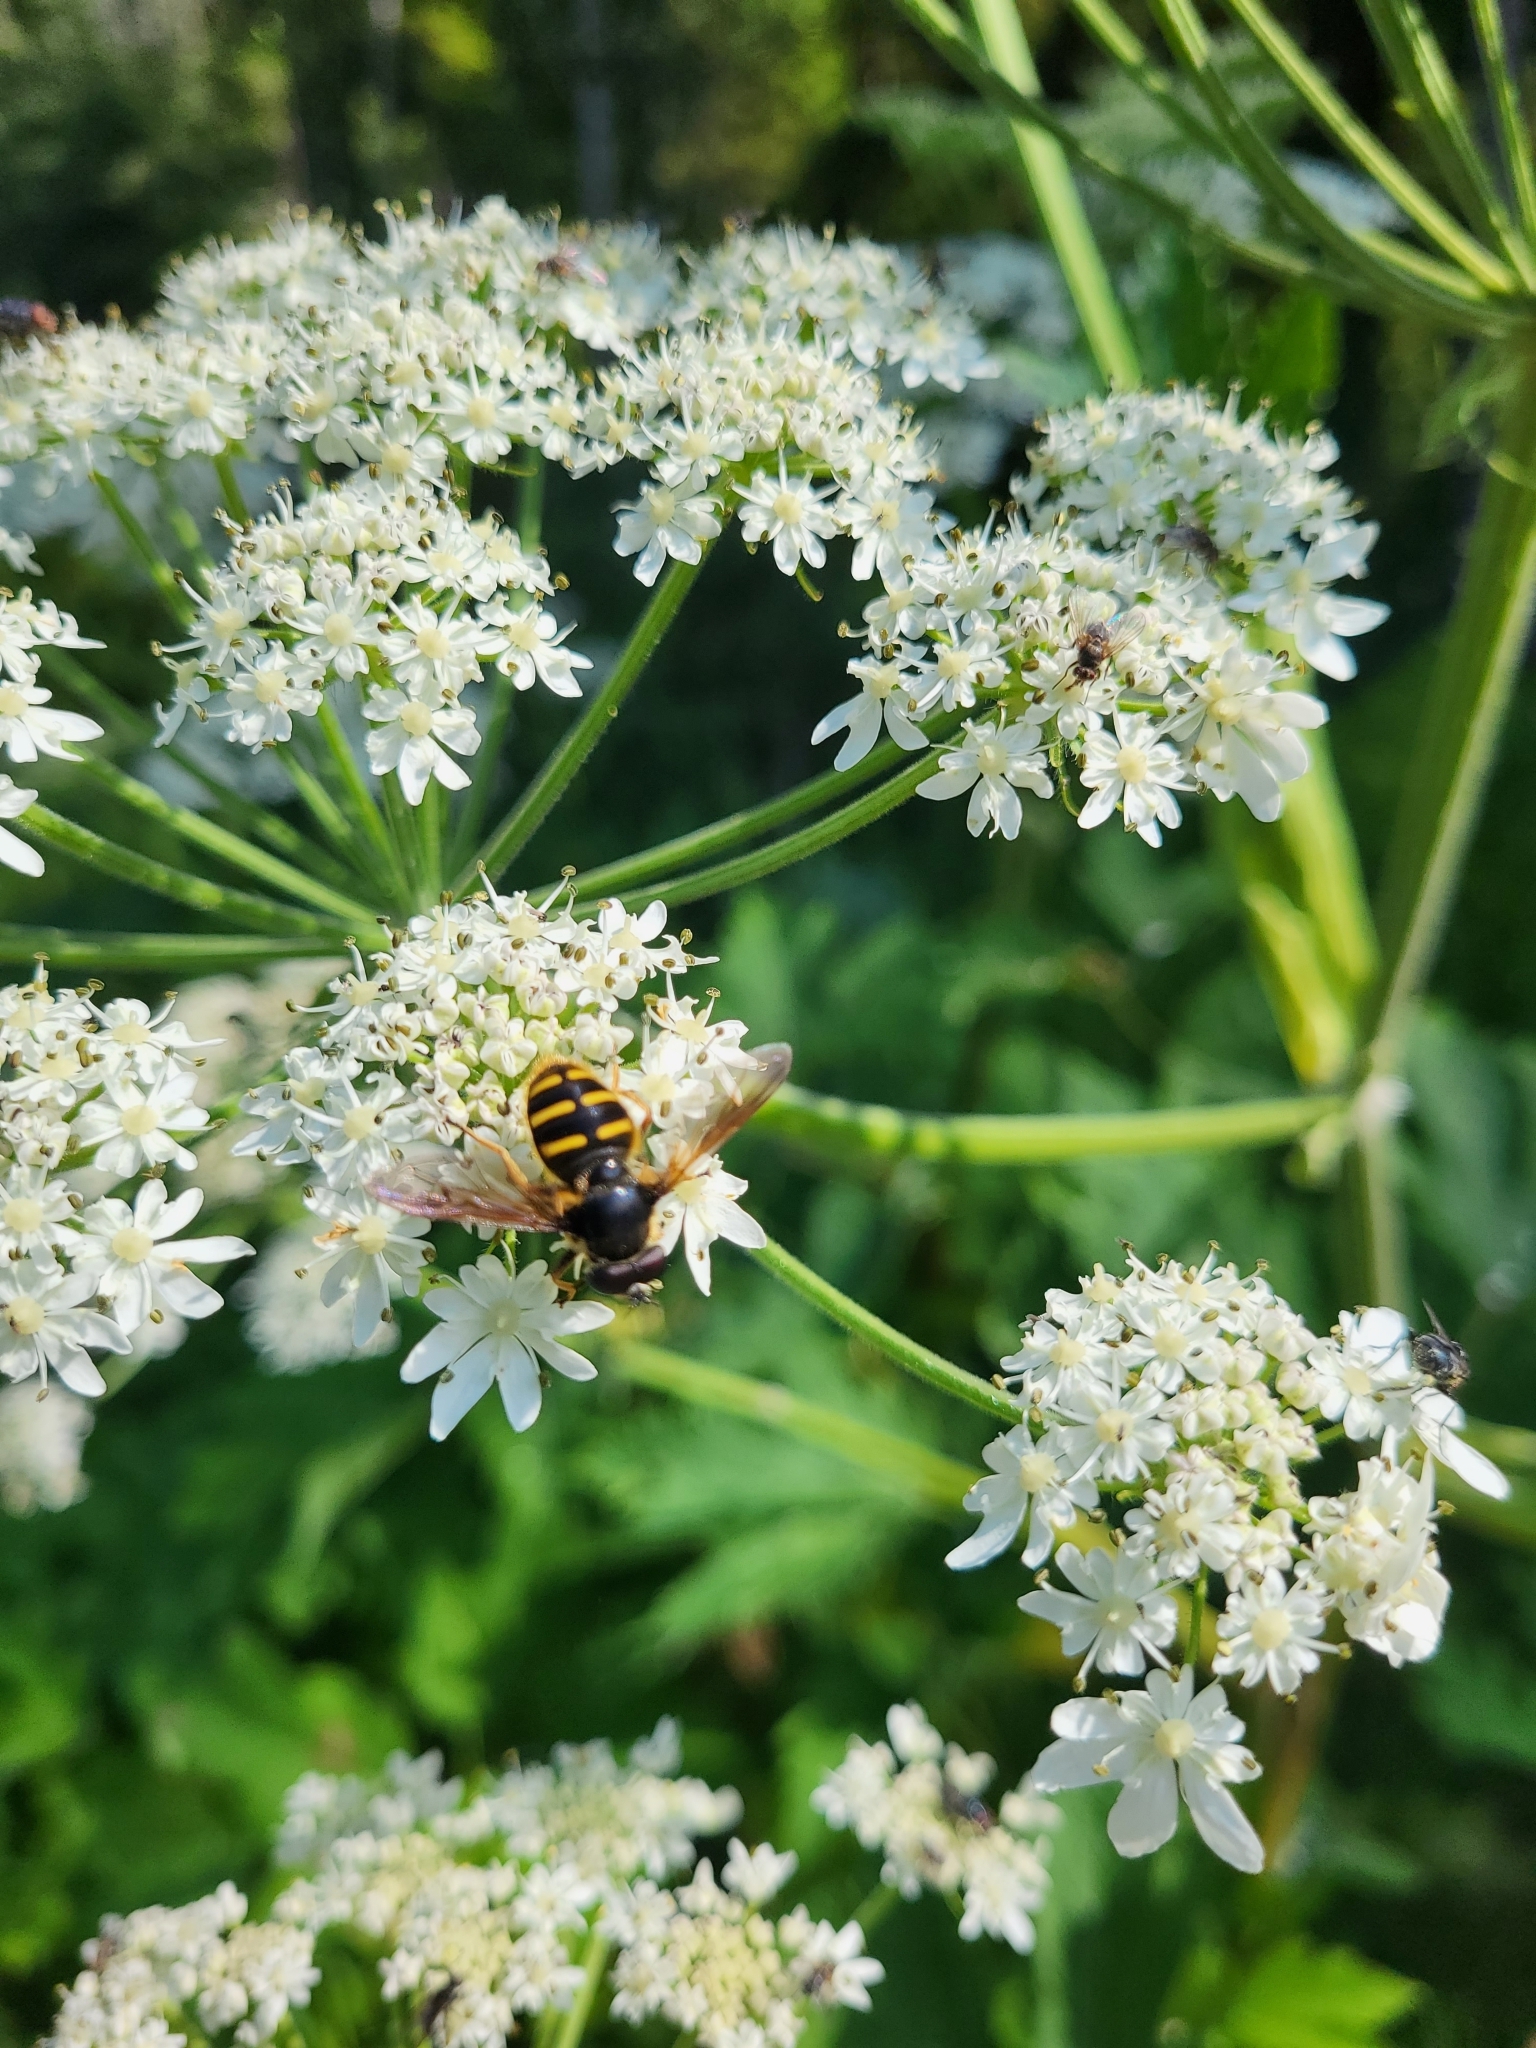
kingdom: Animalia
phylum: Arthropoda
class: Insecta
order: Diptera
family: Syrphidae
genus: Sericomyia
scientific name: Sericomyia chalcopyga
